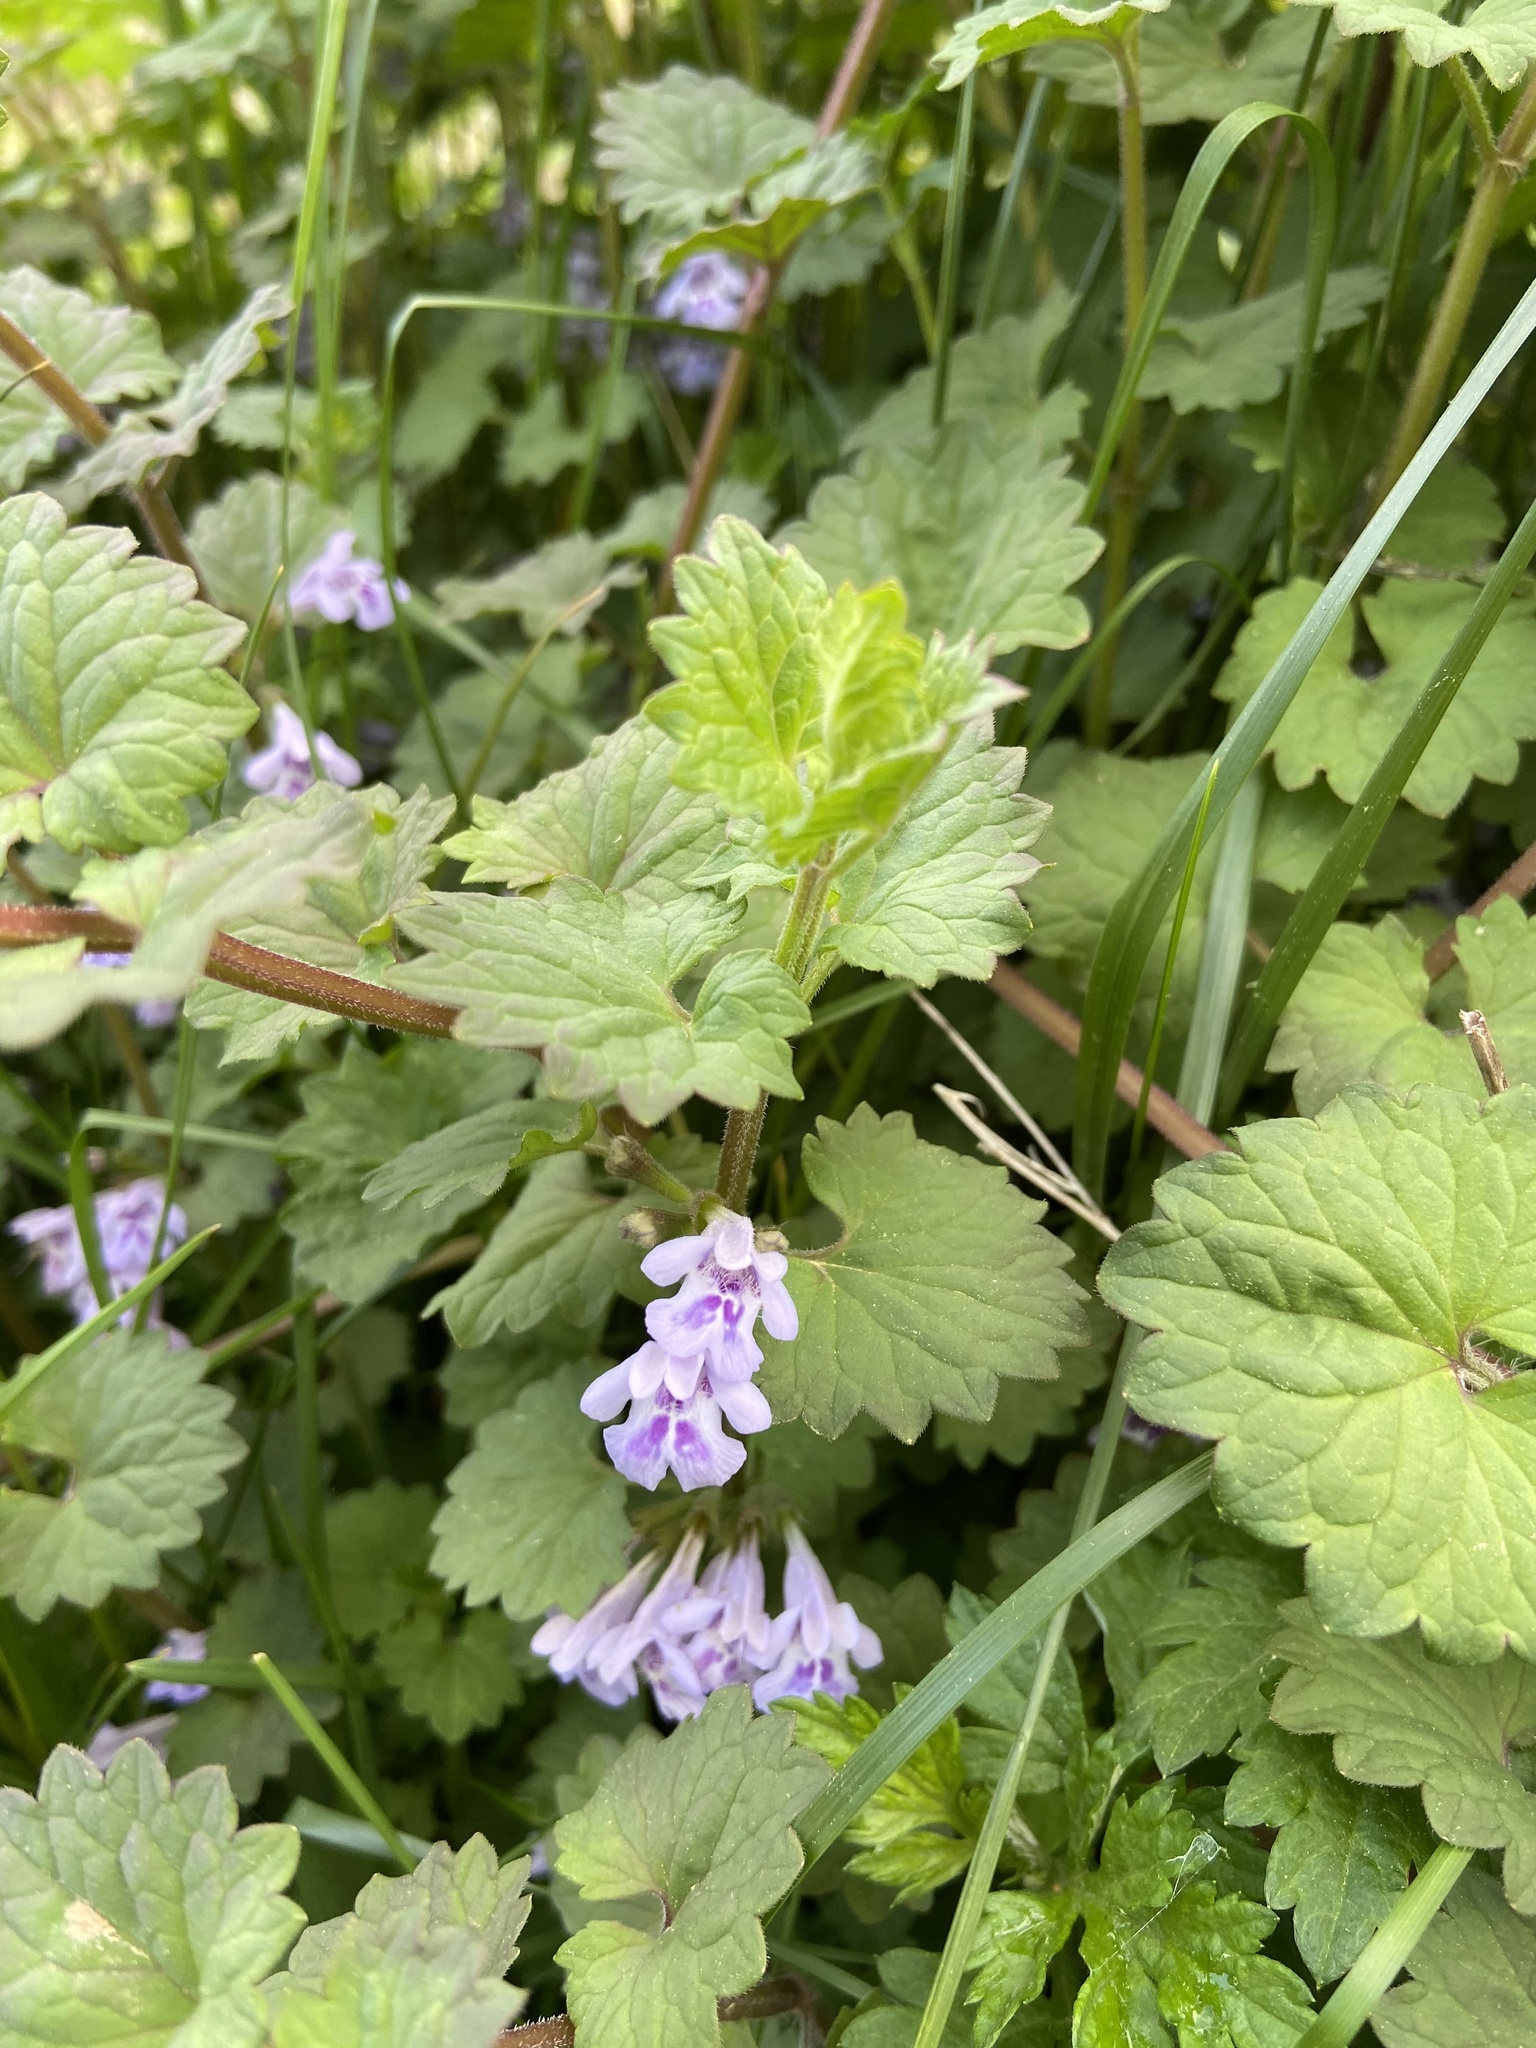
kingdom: Plantae
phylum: Tracheophyta
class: Magnoliopsida
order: Lamiales
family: Lamiaceae
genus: Glechoma
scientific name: Glechoma hederacea
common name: Ground ivy
